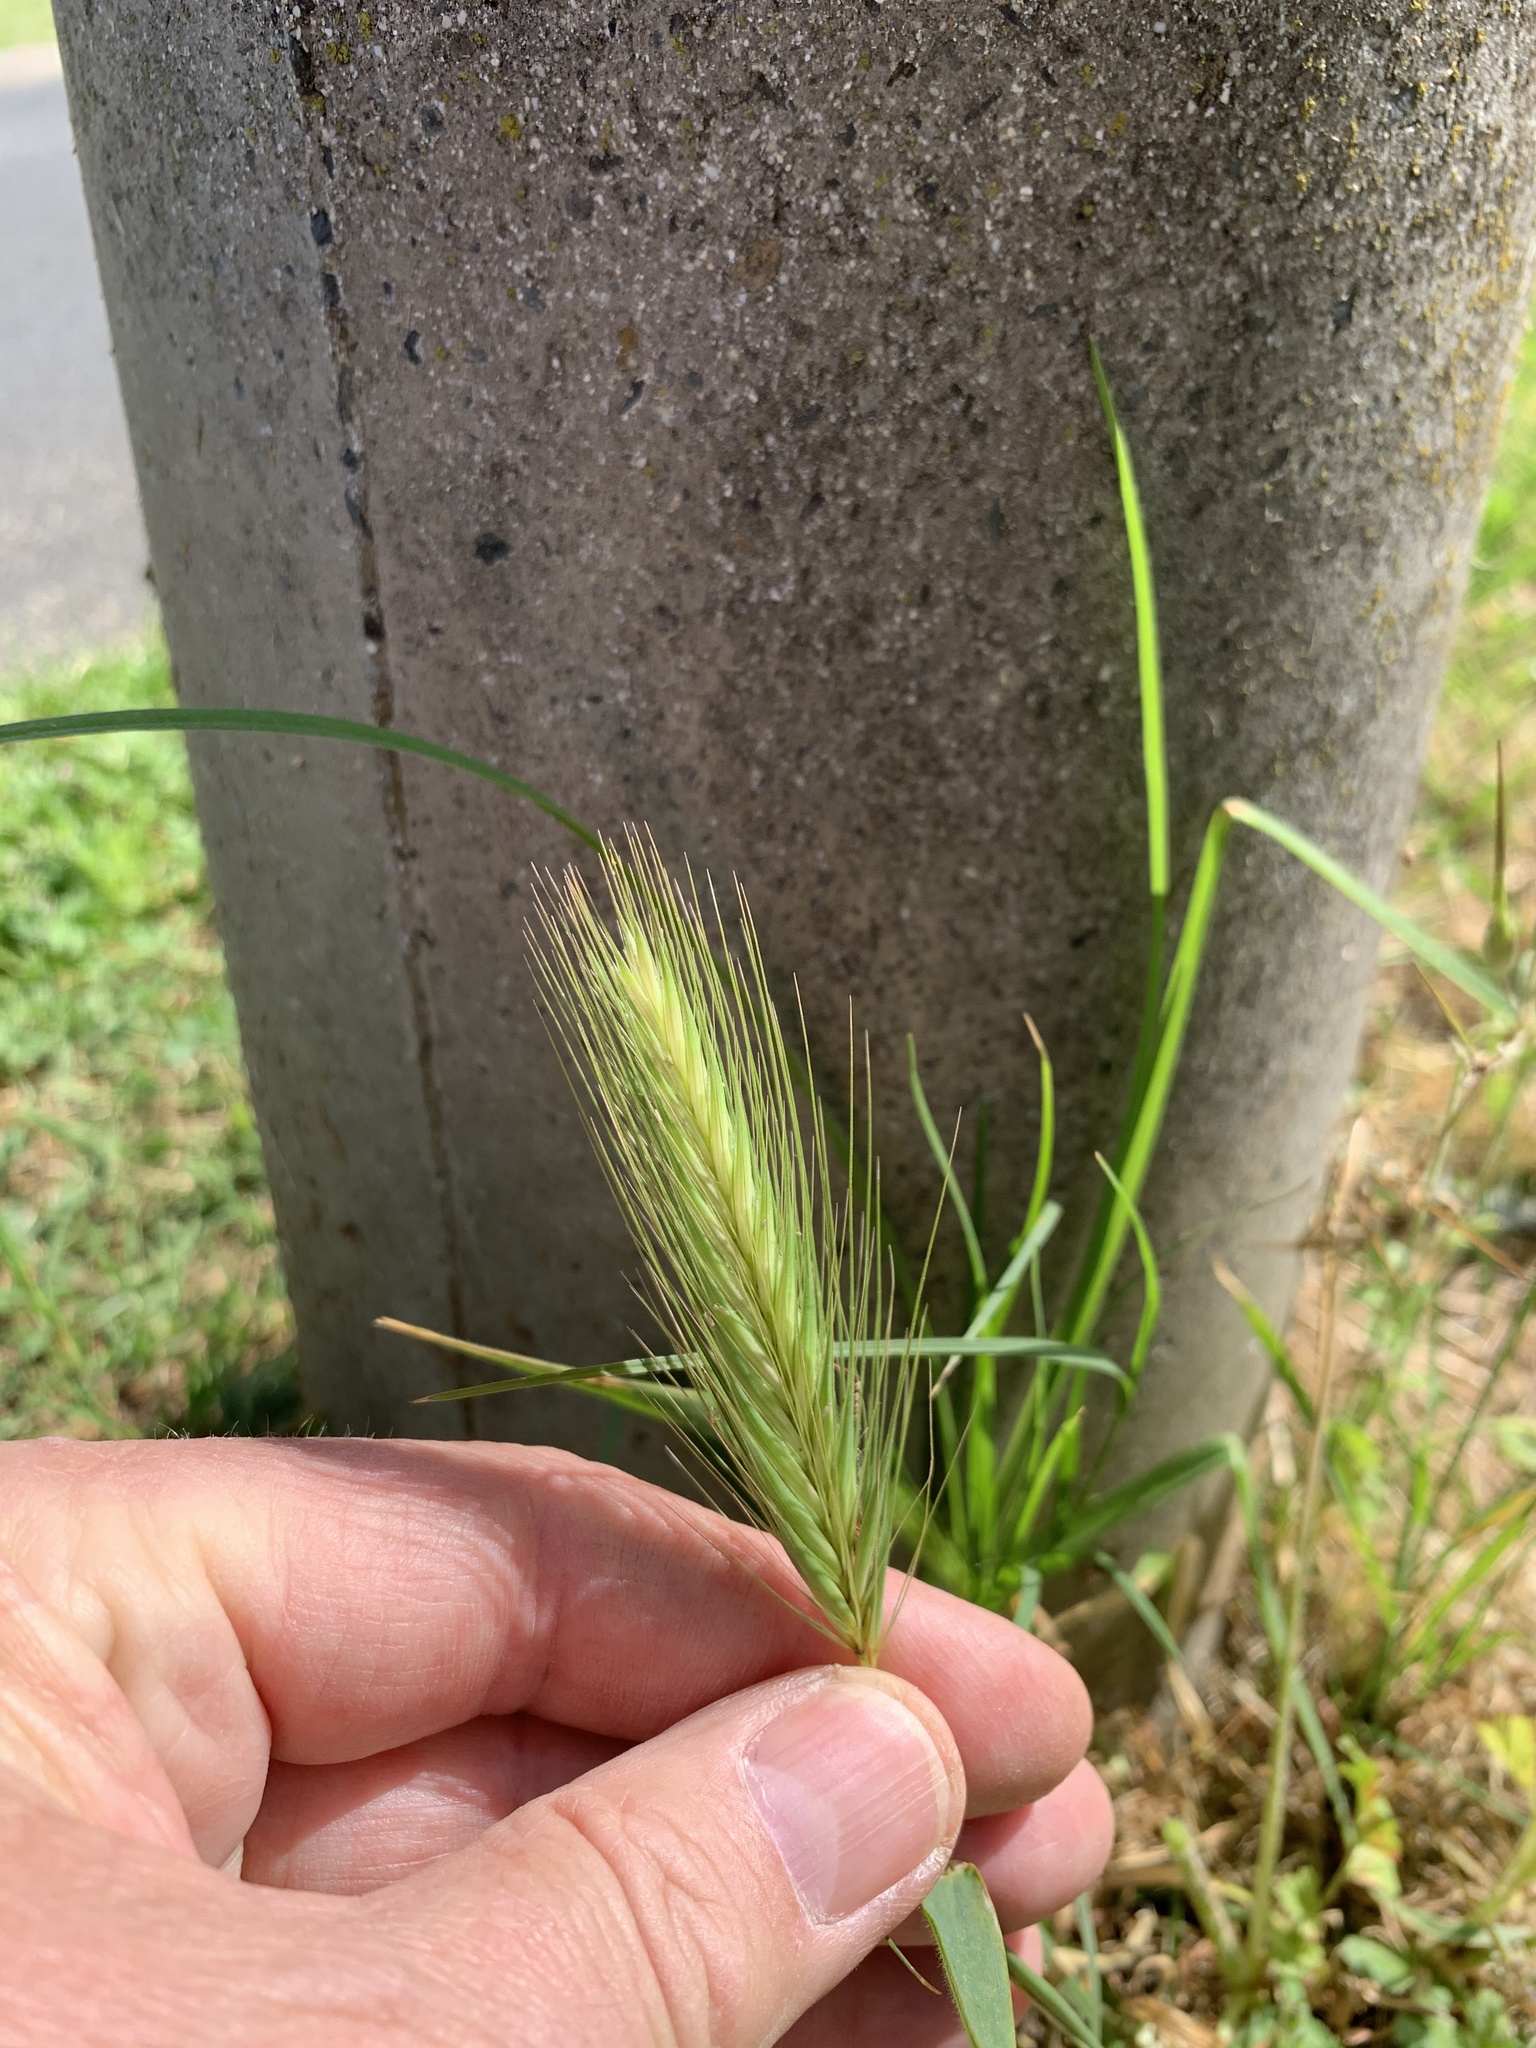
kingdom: Plantae
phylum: Tracheophyta
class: Liliopsida
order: Poales
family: Poaceae
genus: Hordeum
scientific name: Hordeum murinum
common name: Wall barley
